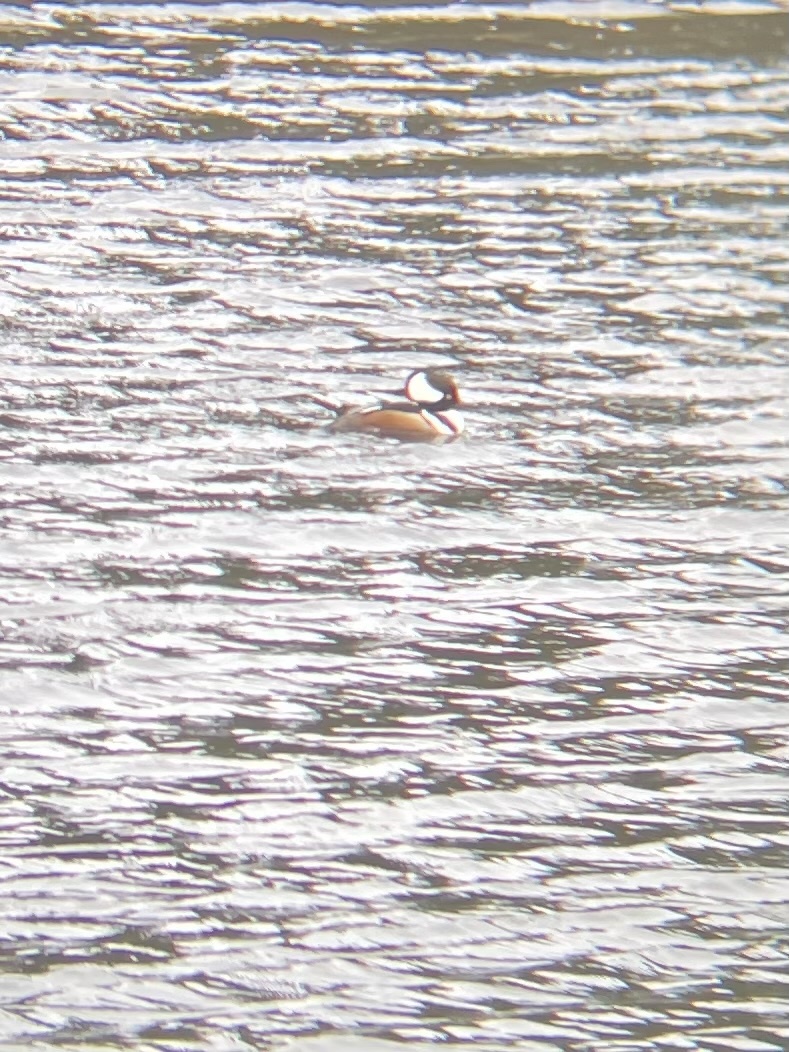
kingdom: Animalia
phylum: Chordata
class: Aves
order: Anseriformes
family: Anatidae
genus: Lophodytes
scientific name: Lophodytes cucullatus
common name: Hooded merganser
